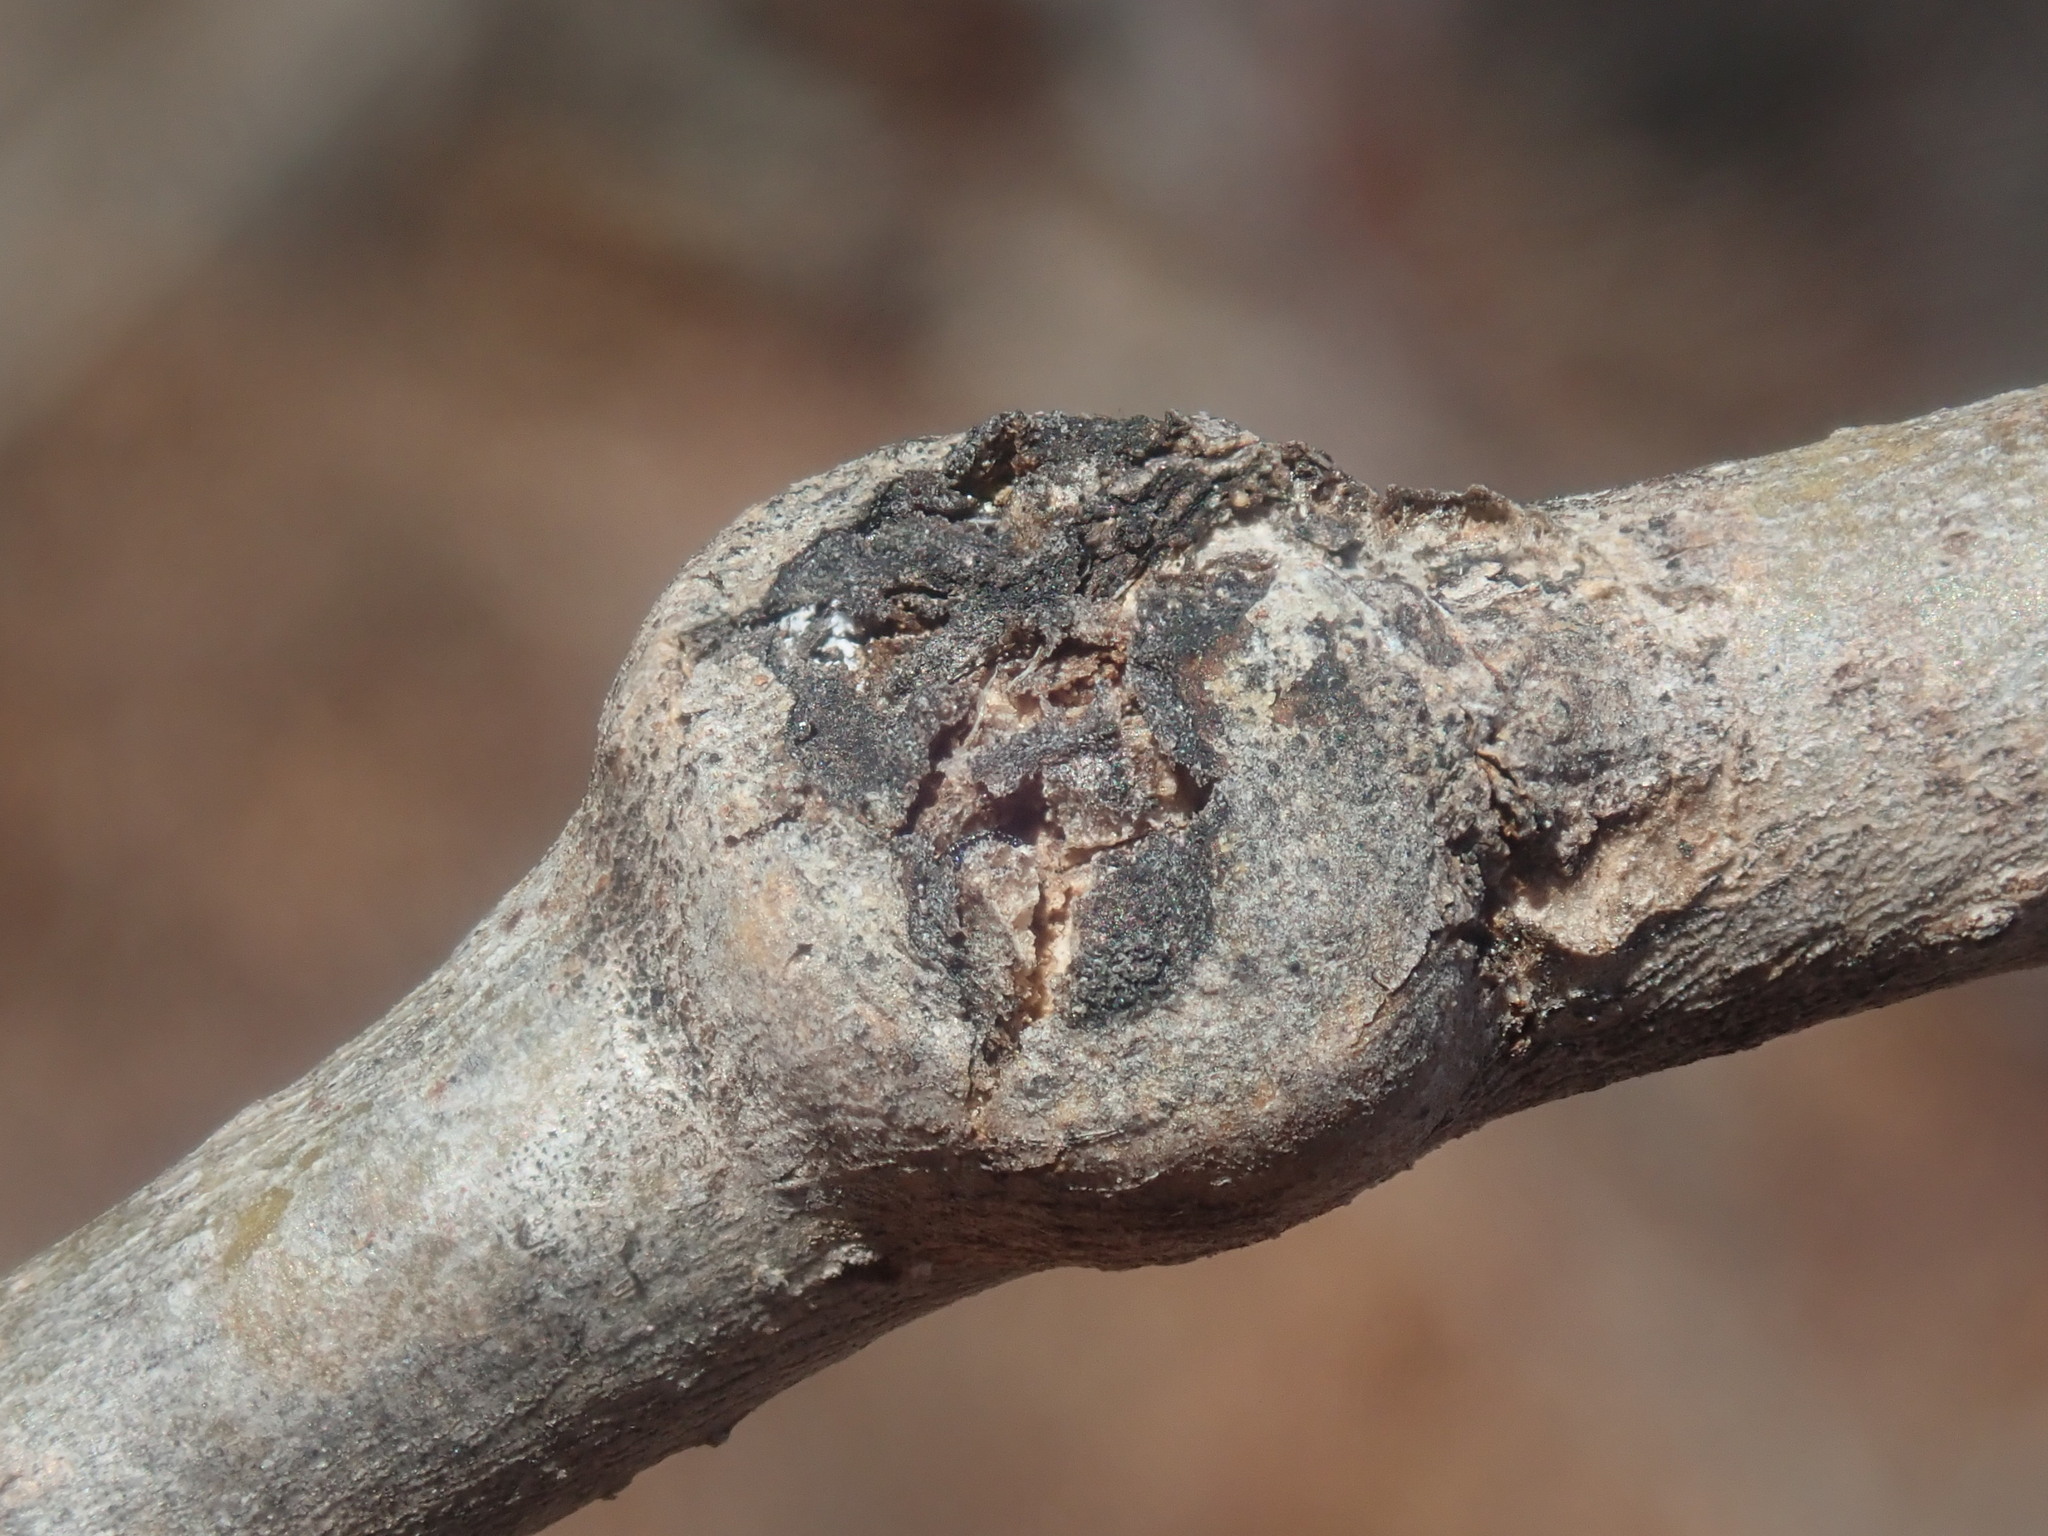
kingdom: Animalia
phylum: Arthropoda
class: Insecta
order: Diptera
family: Agromyzidae
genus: Euhexomyza
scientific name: Euhexomyza schineri
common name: Poplar twiggall fly
